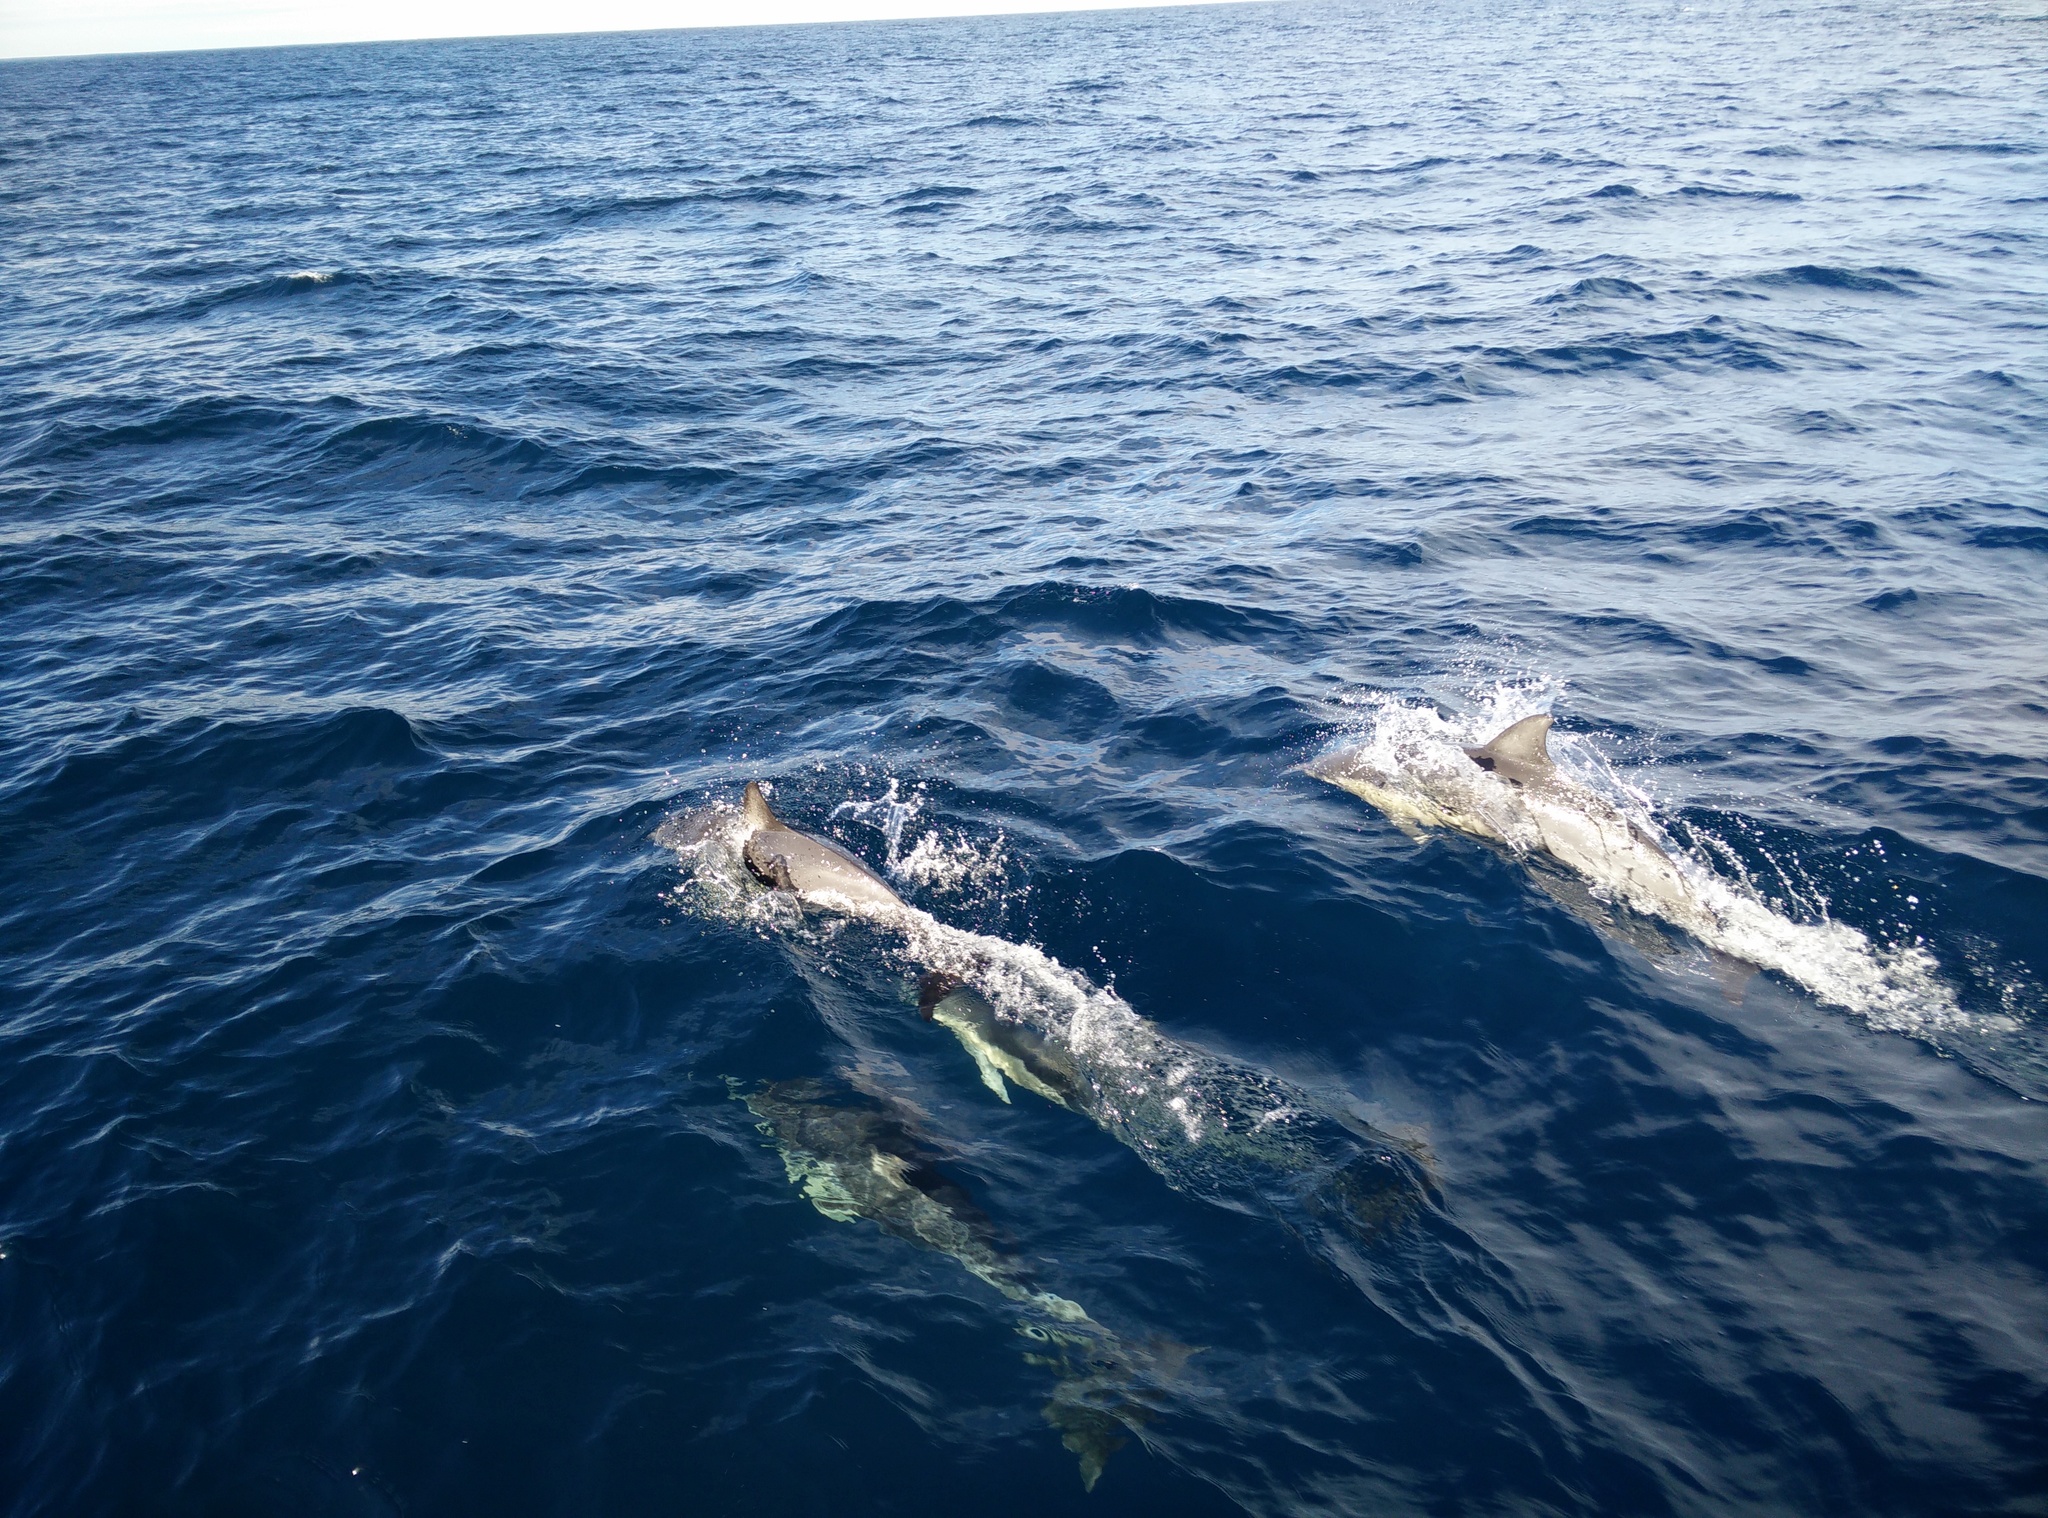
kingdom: Animalia
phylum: Chordata
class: Mammalia
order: Cetacea
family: Delphinidae
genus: Delphinus
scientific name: Delphinus delphis
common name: Common dolphin
